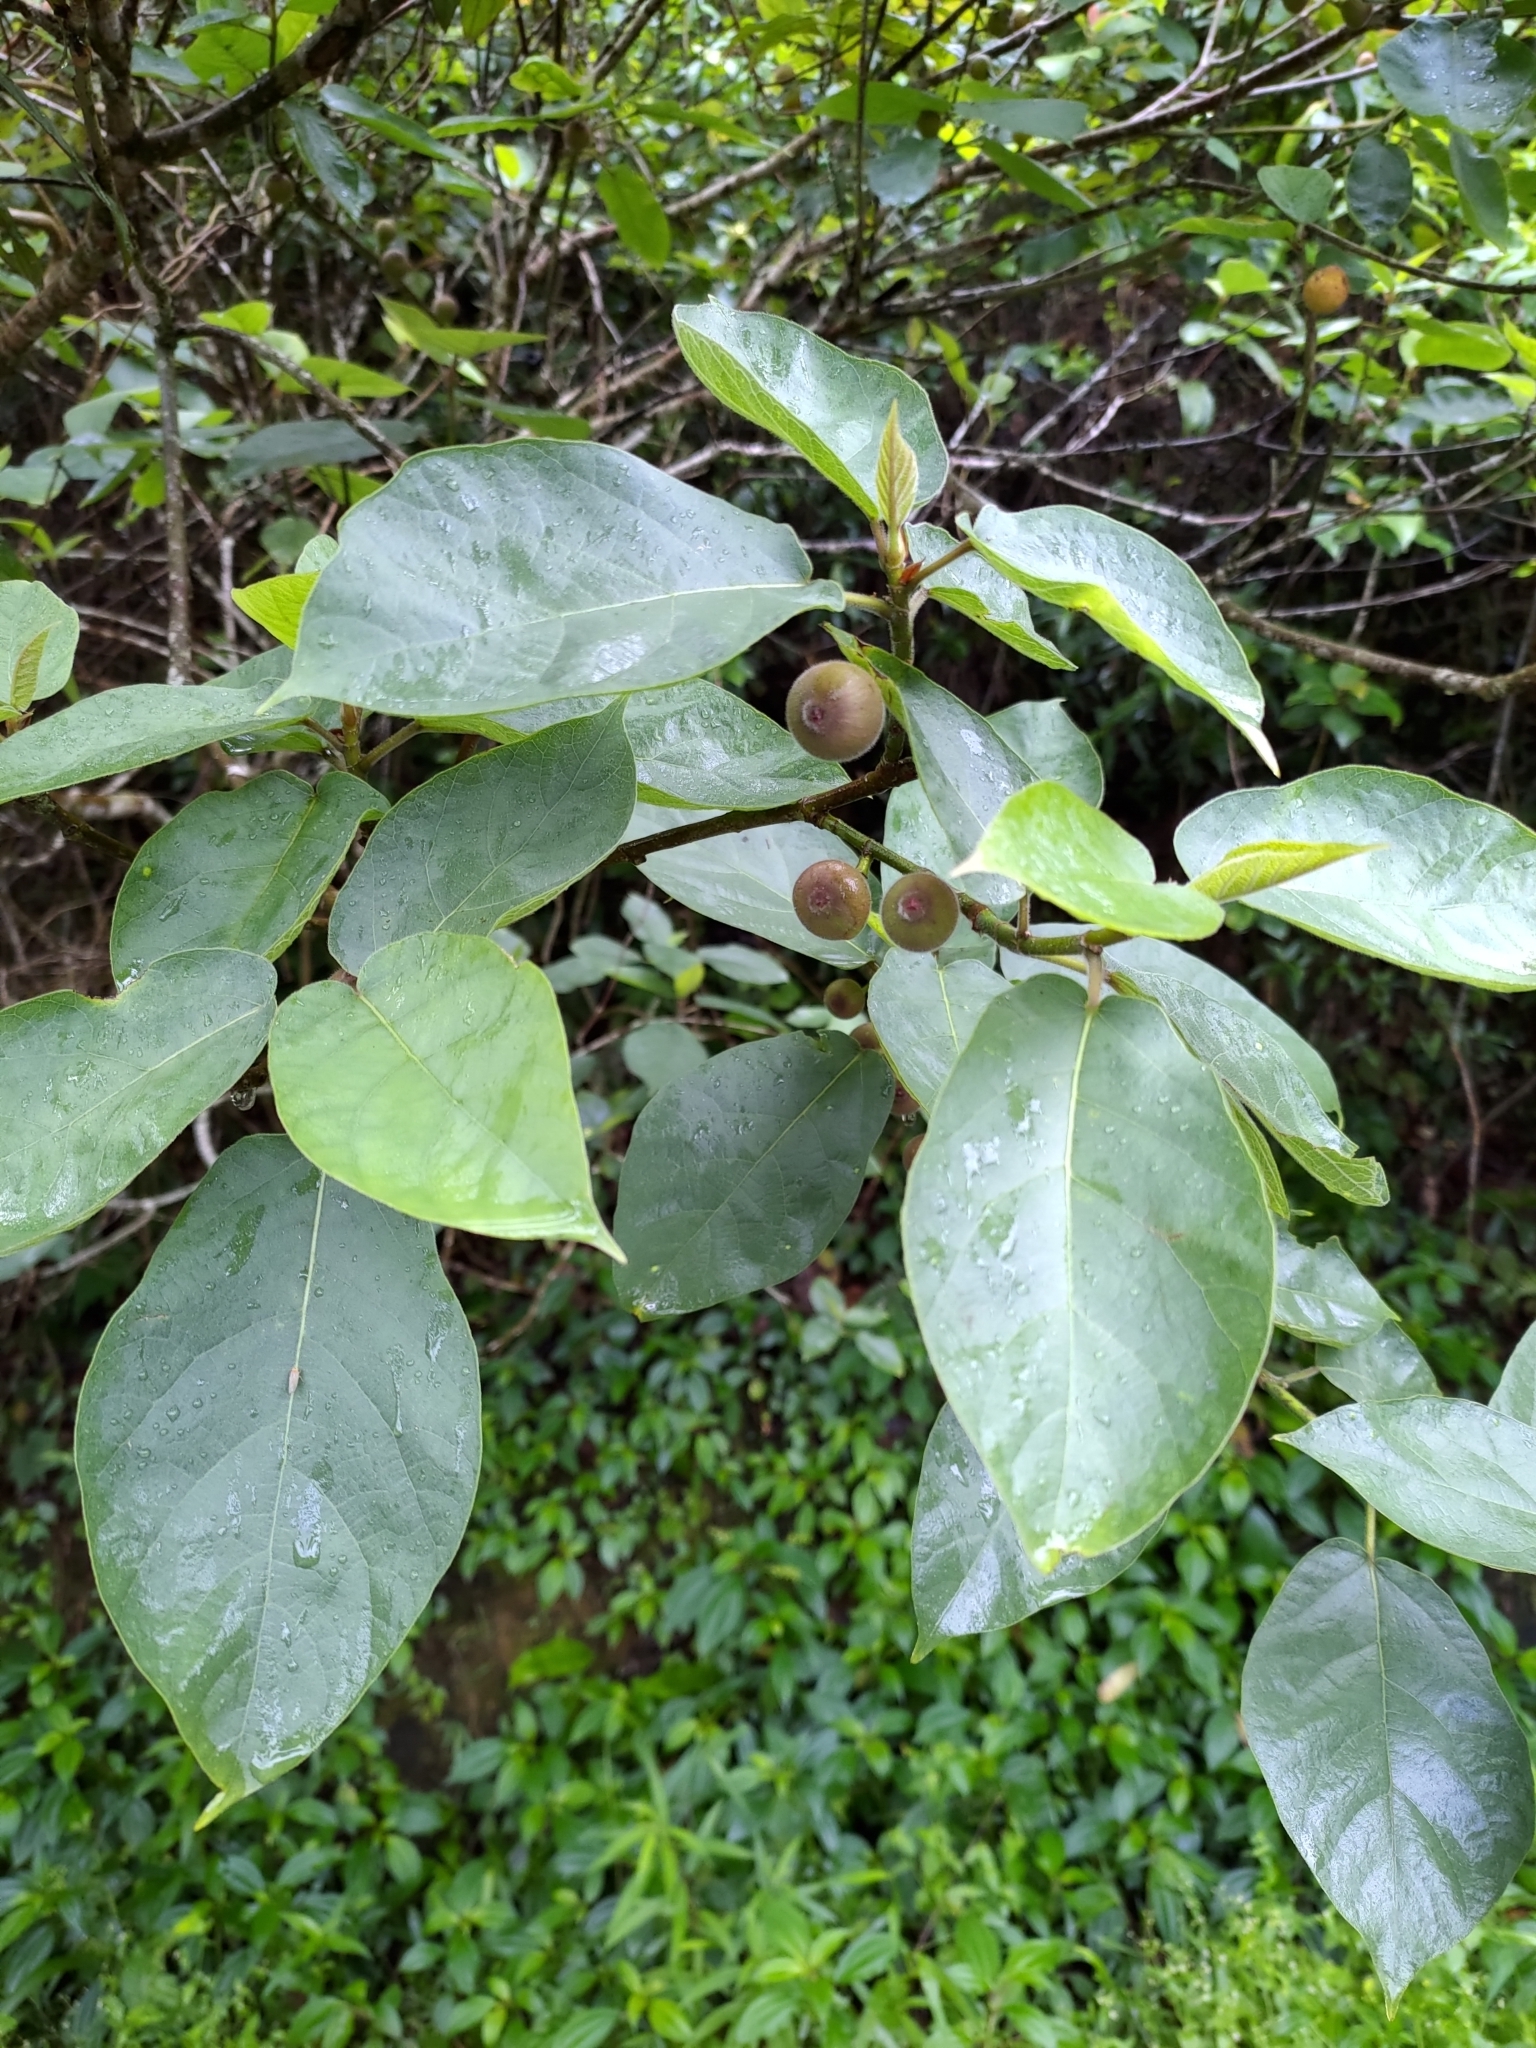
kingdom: Plantae
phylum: Tracheophyta
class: Magnoliopsida
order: Rosales
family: Moraceae
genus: Ficus
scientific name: Ficus erecta
